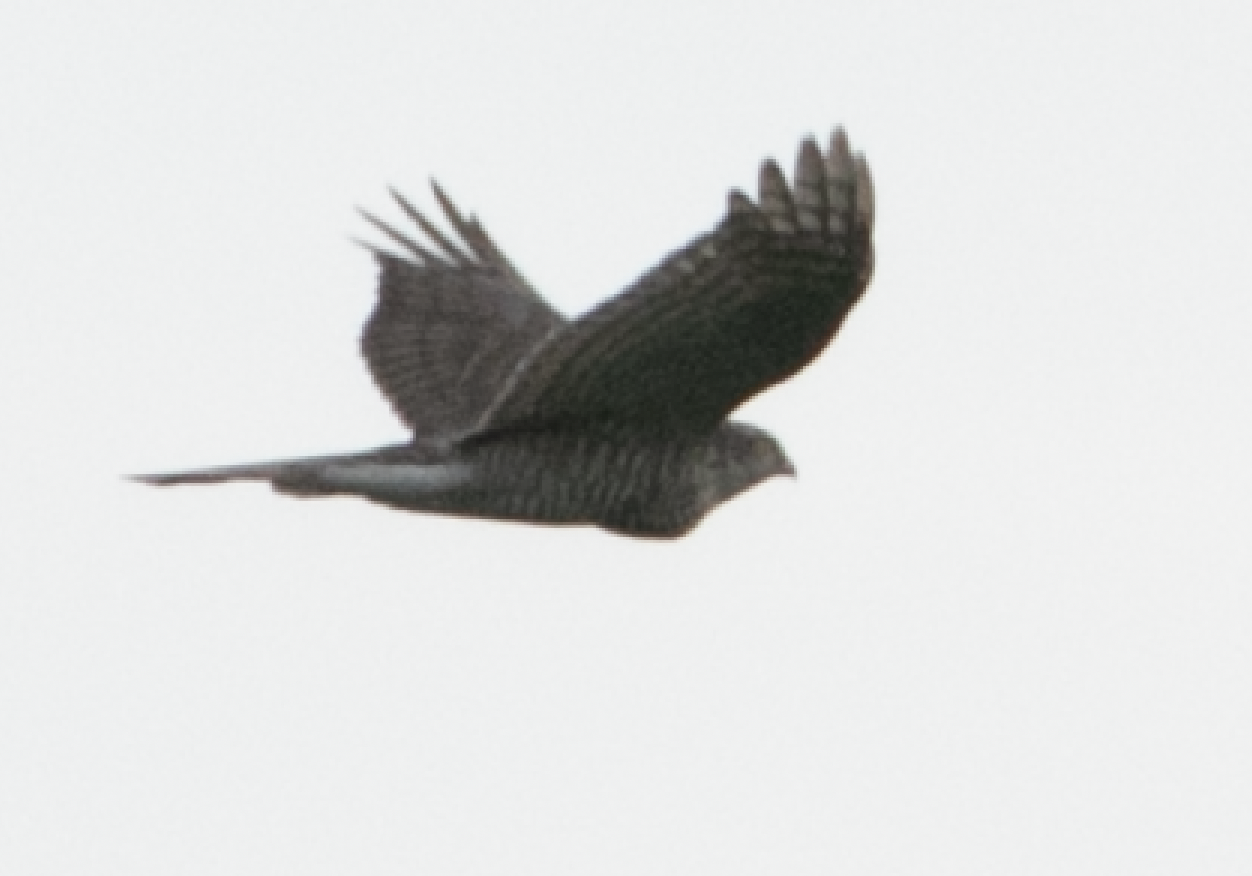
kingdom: Animalia
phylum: Chordata
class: Aves
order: Accipitriformes
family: Accipitridae
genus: Accipiter
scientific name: Accipiter nisus
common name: Eurasian sparrowhawk
